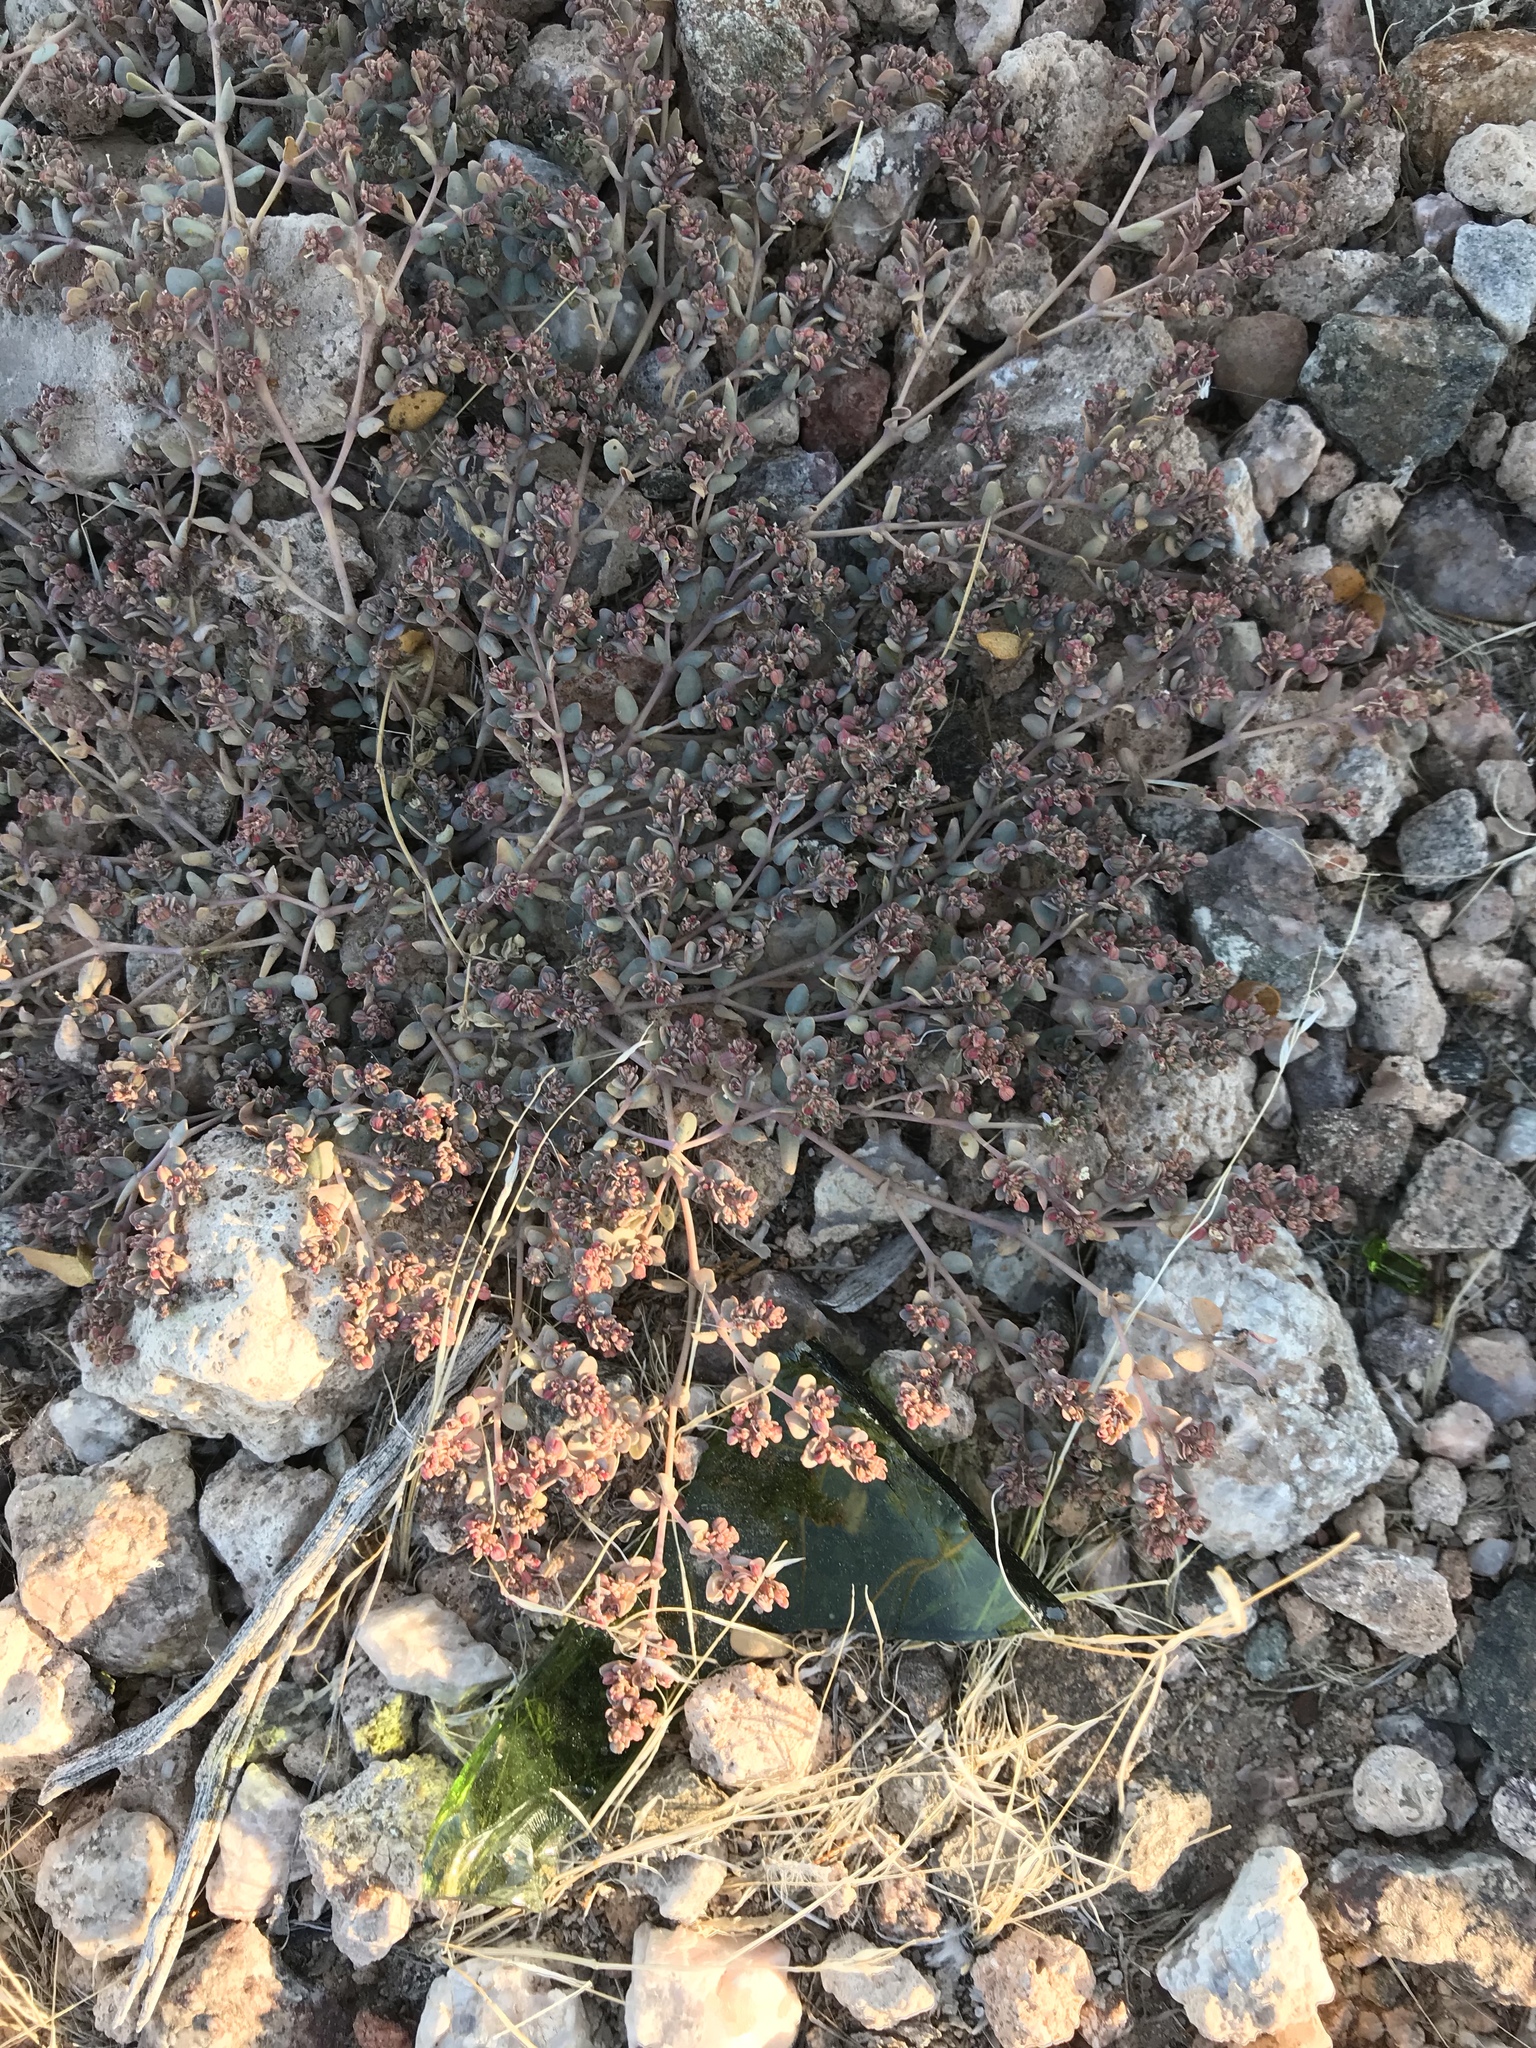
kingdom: Plantae
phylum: Tracheophyta
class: Magnoliopsida
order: Malpighiales
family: Euphorbiaceae
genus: Euphorbia
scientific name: Euphorbia micromera
